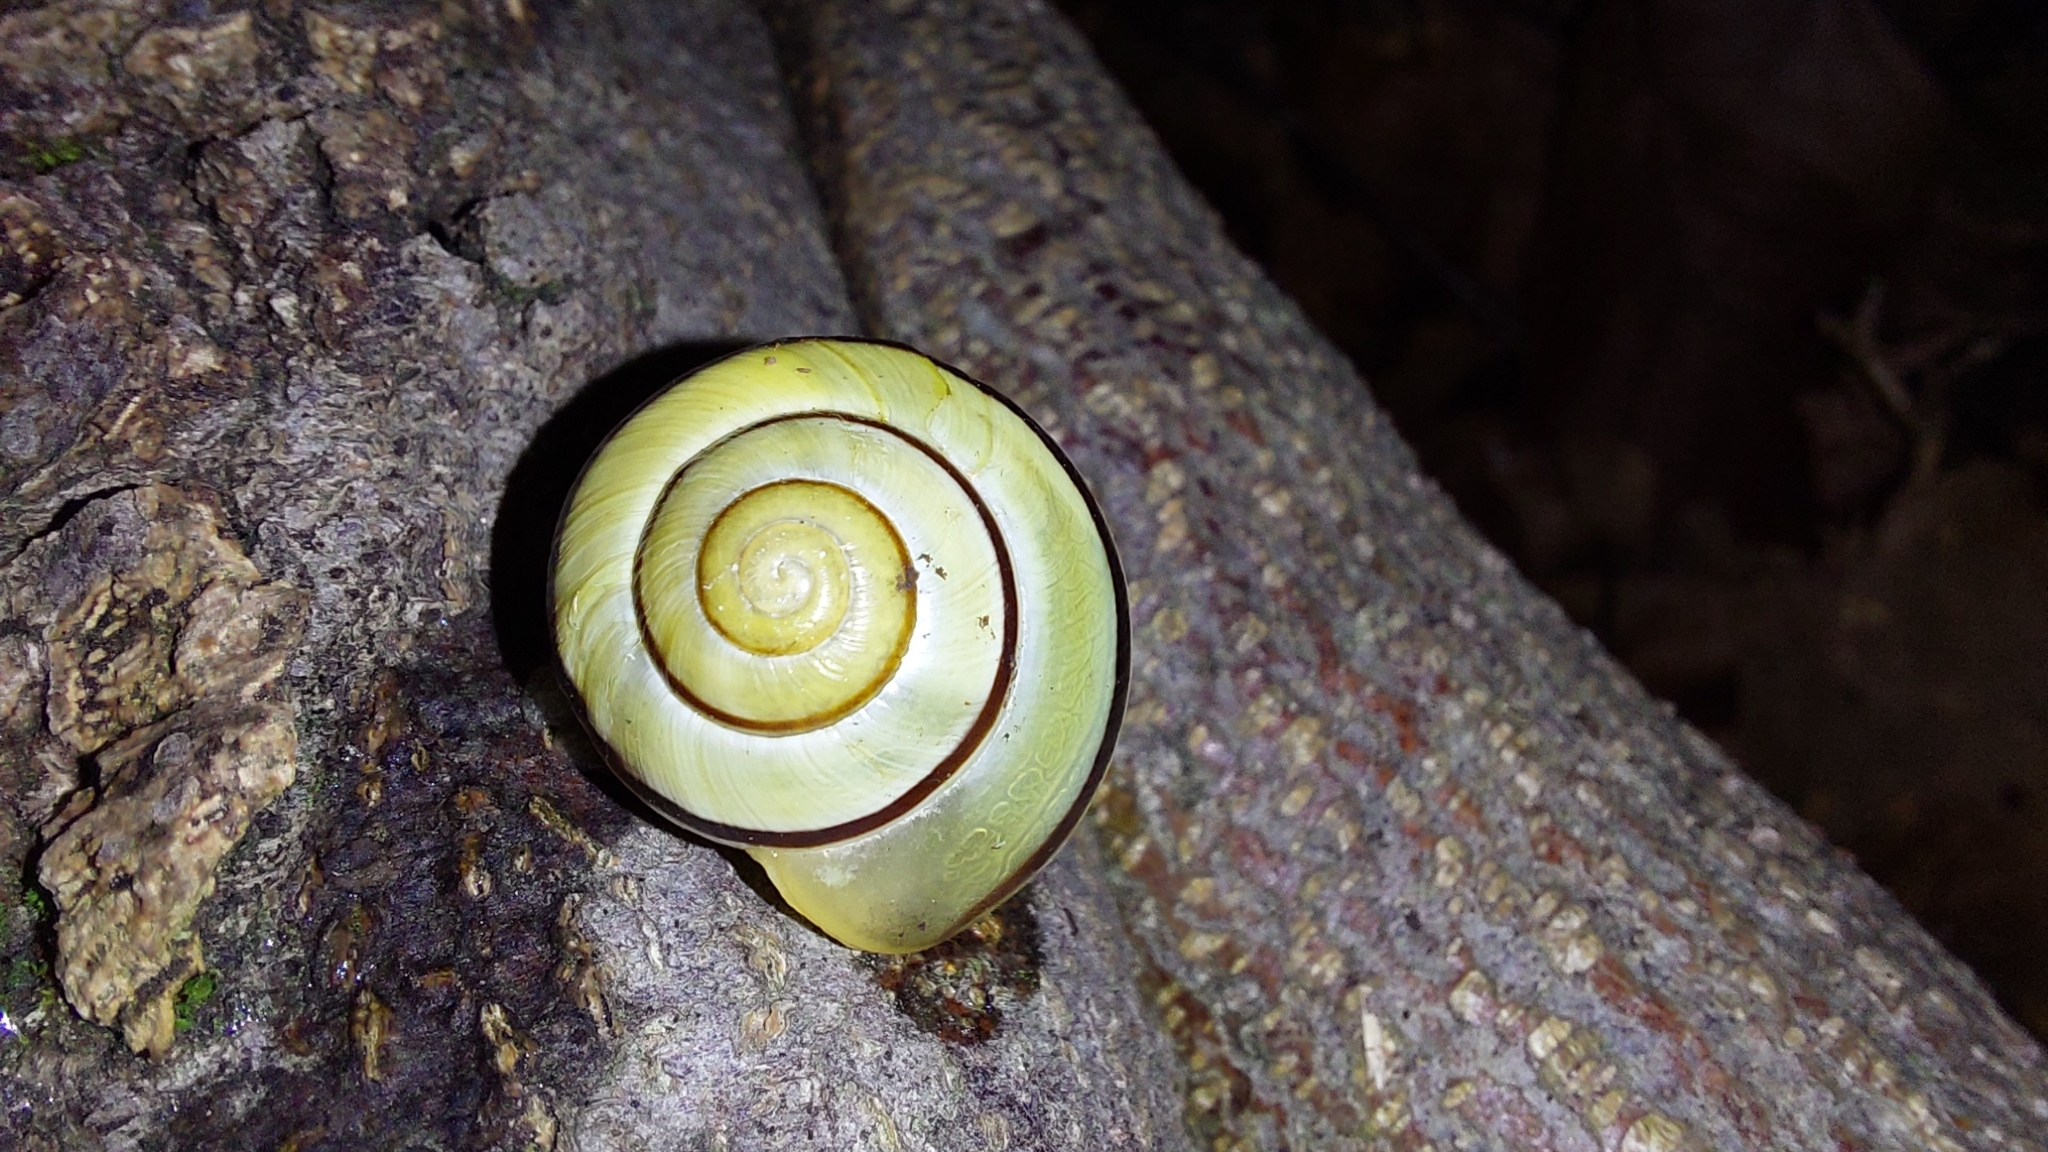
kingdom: Animalia
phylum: Mollusca
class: Gastropoda
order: Stylommatophora
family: Helicidae
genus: Cepaea
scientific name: Cepaea nemoralis
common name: Grovesnail
